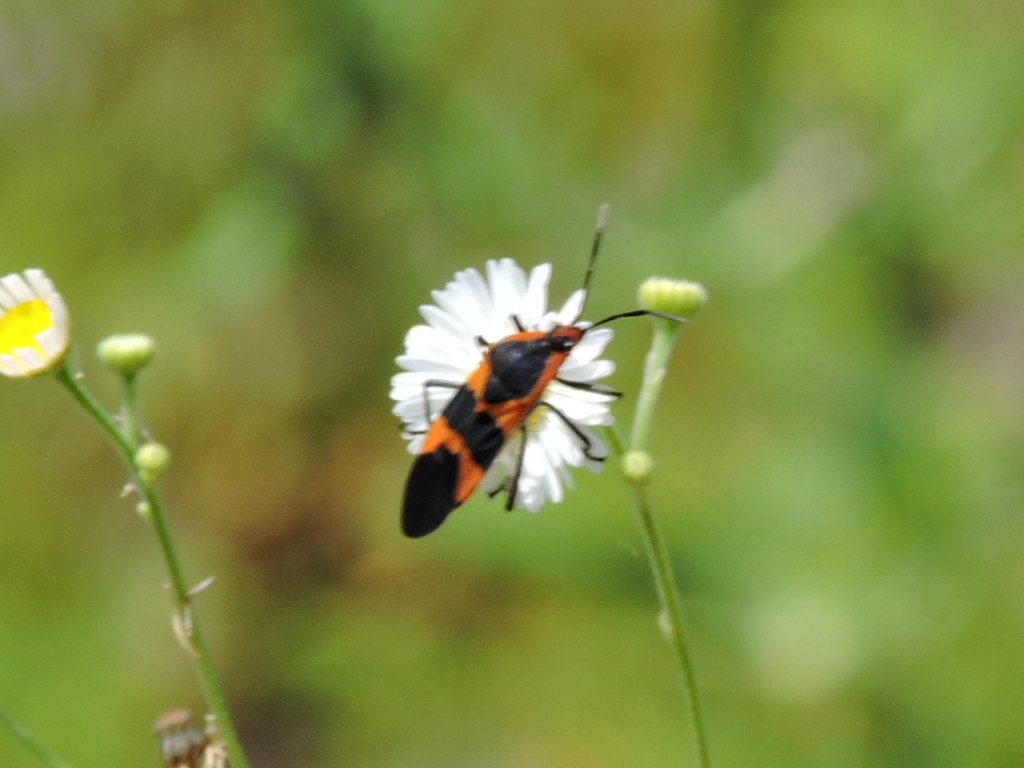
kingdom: Animalia
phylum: Arthropoda
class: Insecta
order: Hemiptera
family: Lygaeidae
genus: Oncopeltus
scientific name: Oncopeltus fasciatus
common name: Large milkweed bug
